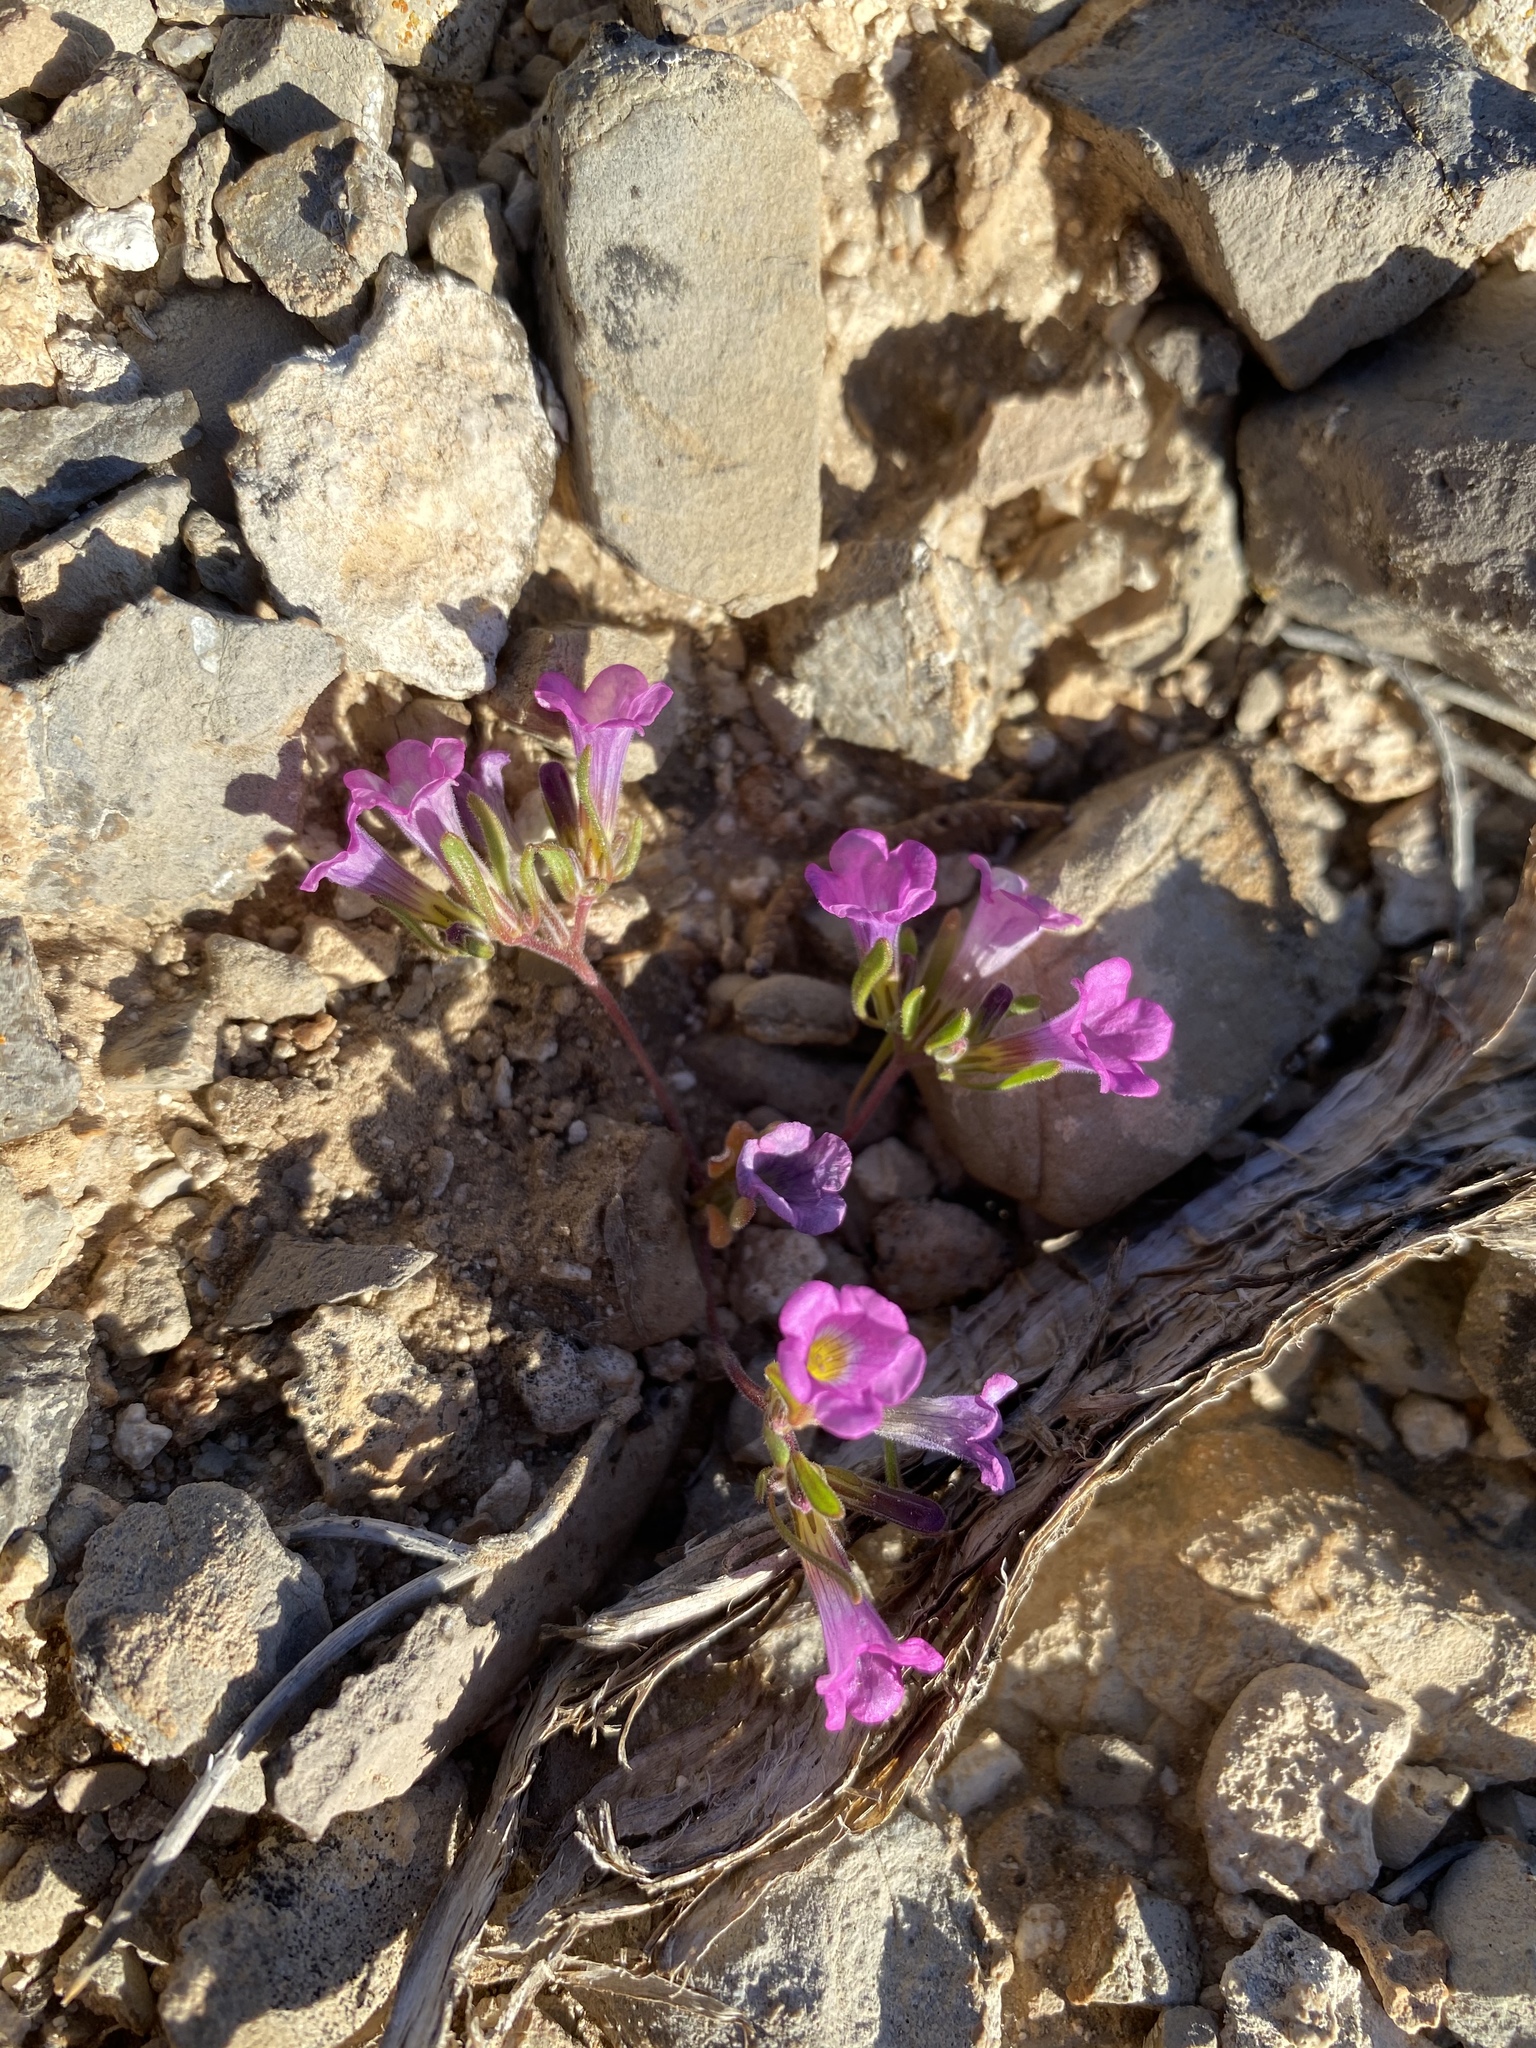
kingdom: Plantae
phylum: Tracheophyta
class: Magnoliopsida
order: Boraginales
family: Namaceae
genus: Nama
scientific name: Nama demissa
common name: Leafy nama
